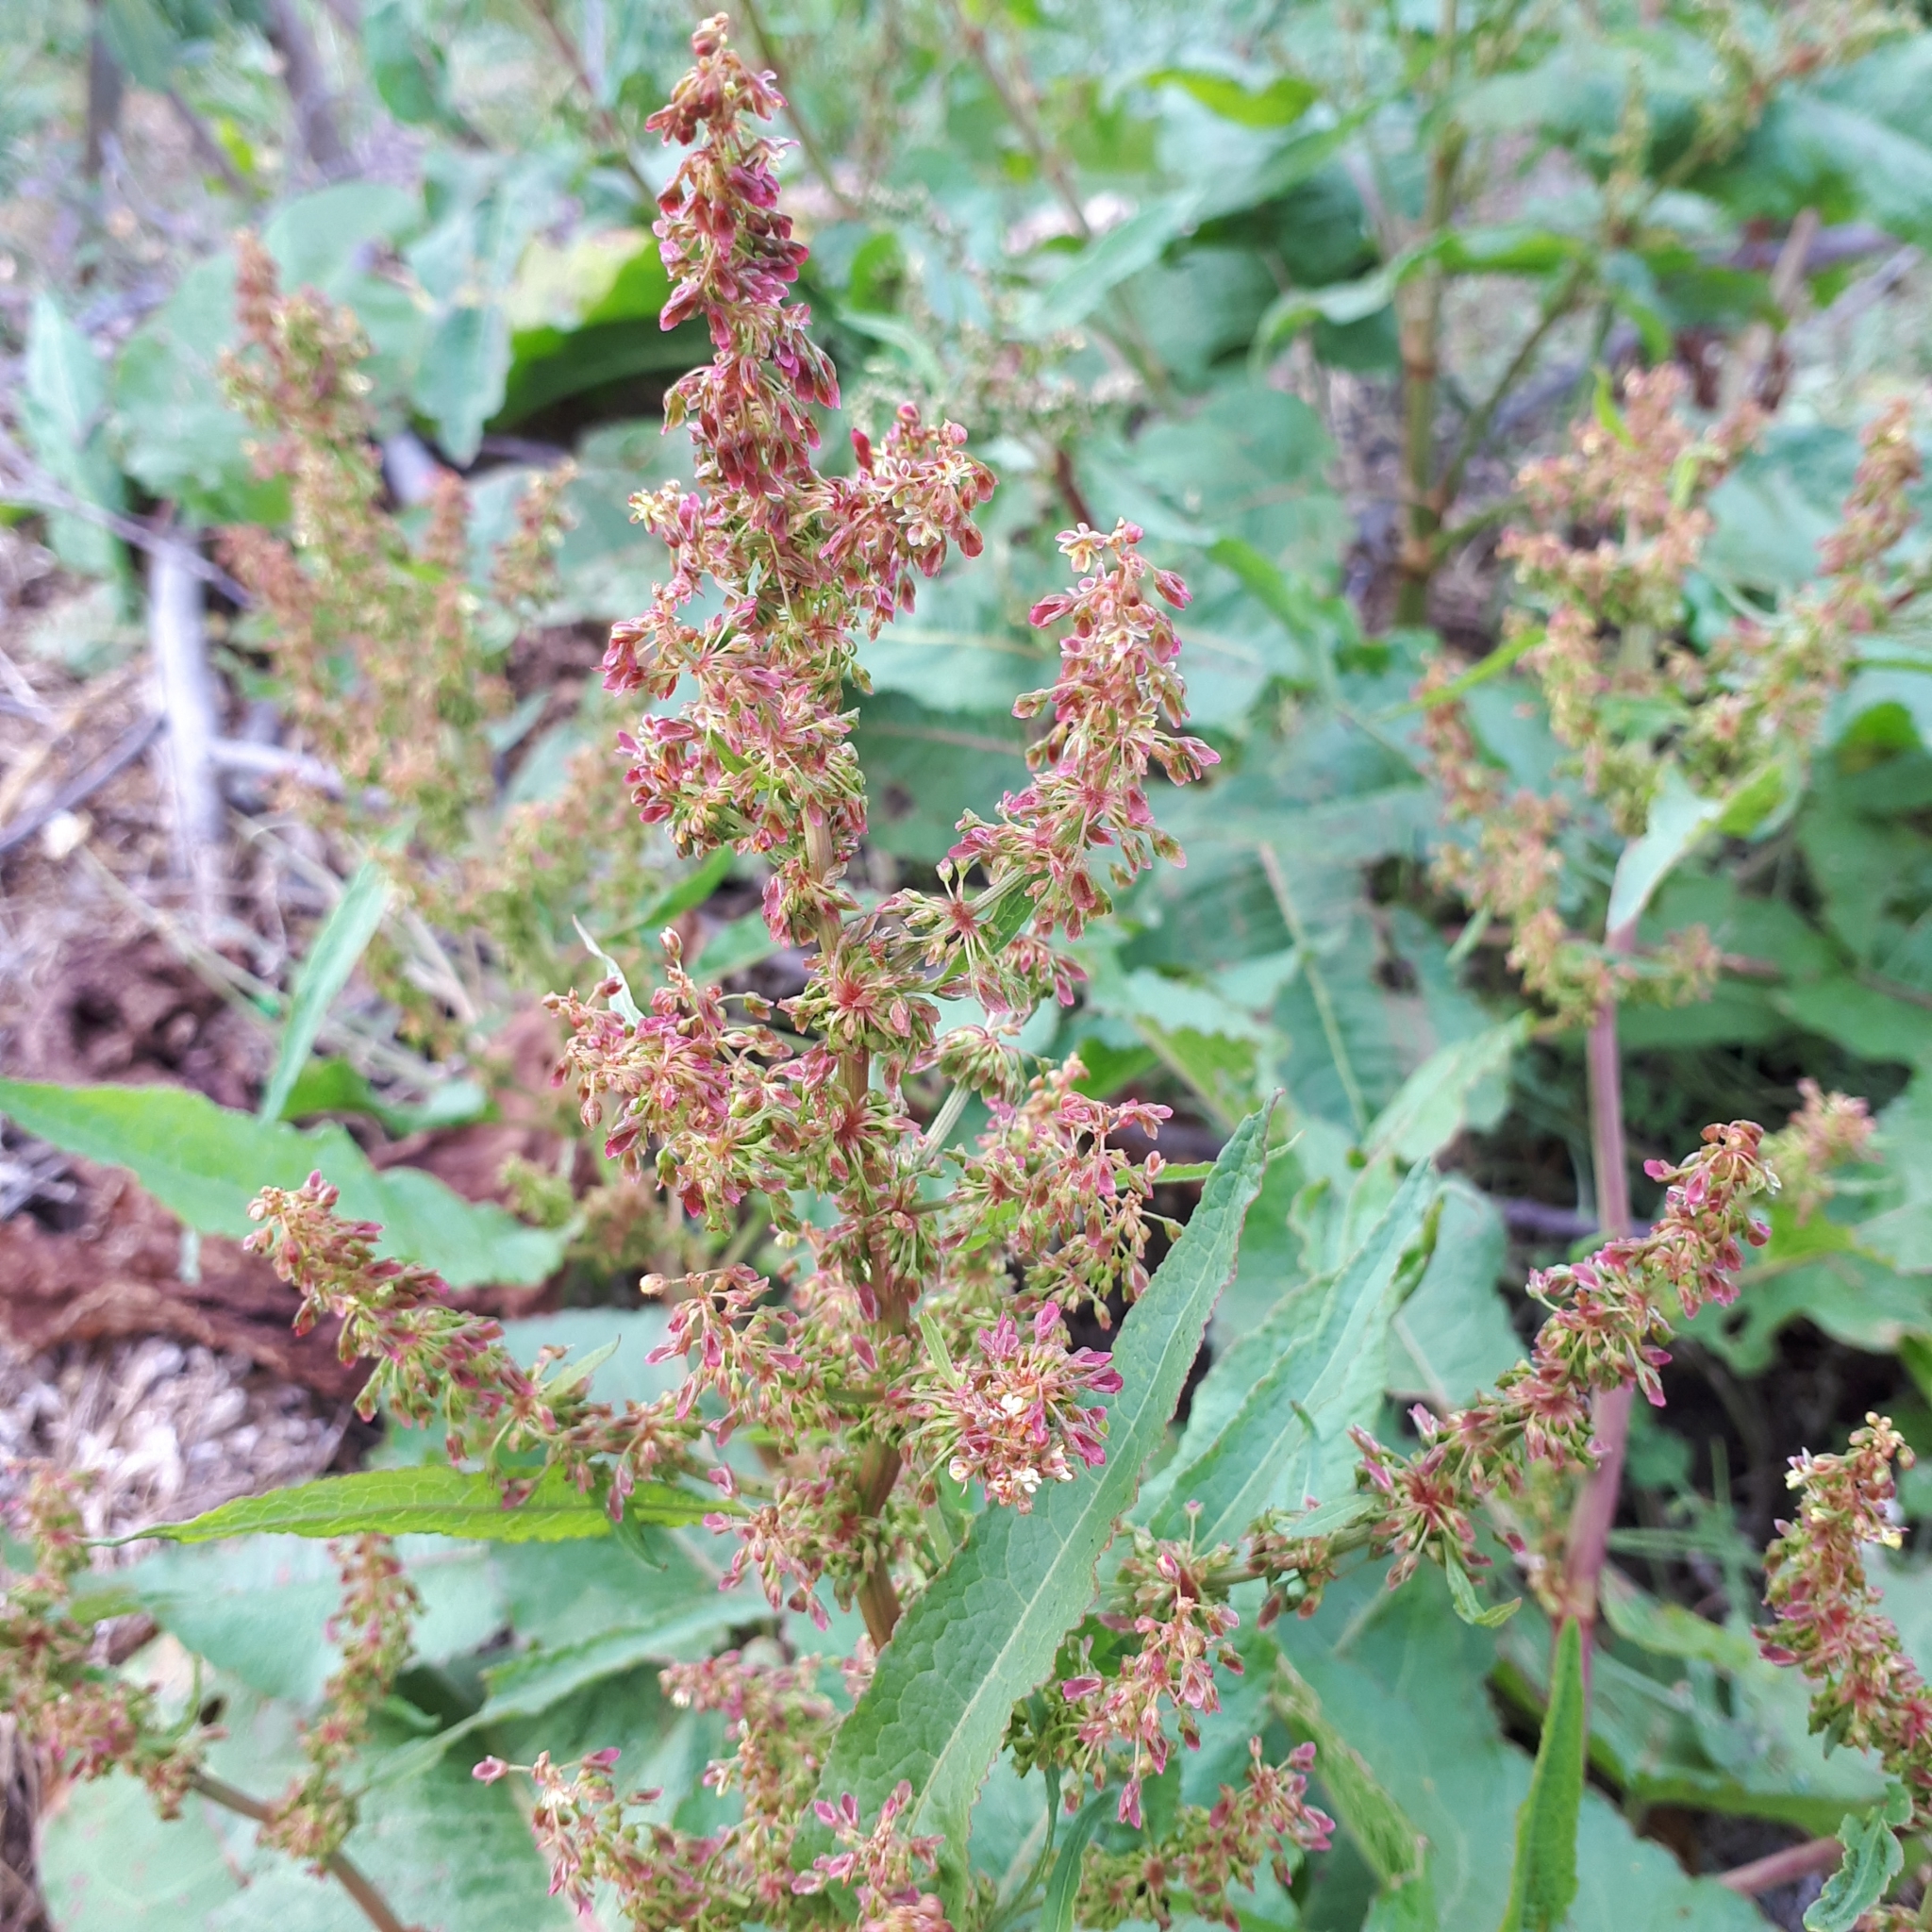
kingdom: Plantae
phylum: Tracheophyta
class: Magnoliopsida
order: Caryophyllales
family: Polygonaceae
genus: Rumex
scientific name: Rumex obtusifolius
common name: Bitter dock
